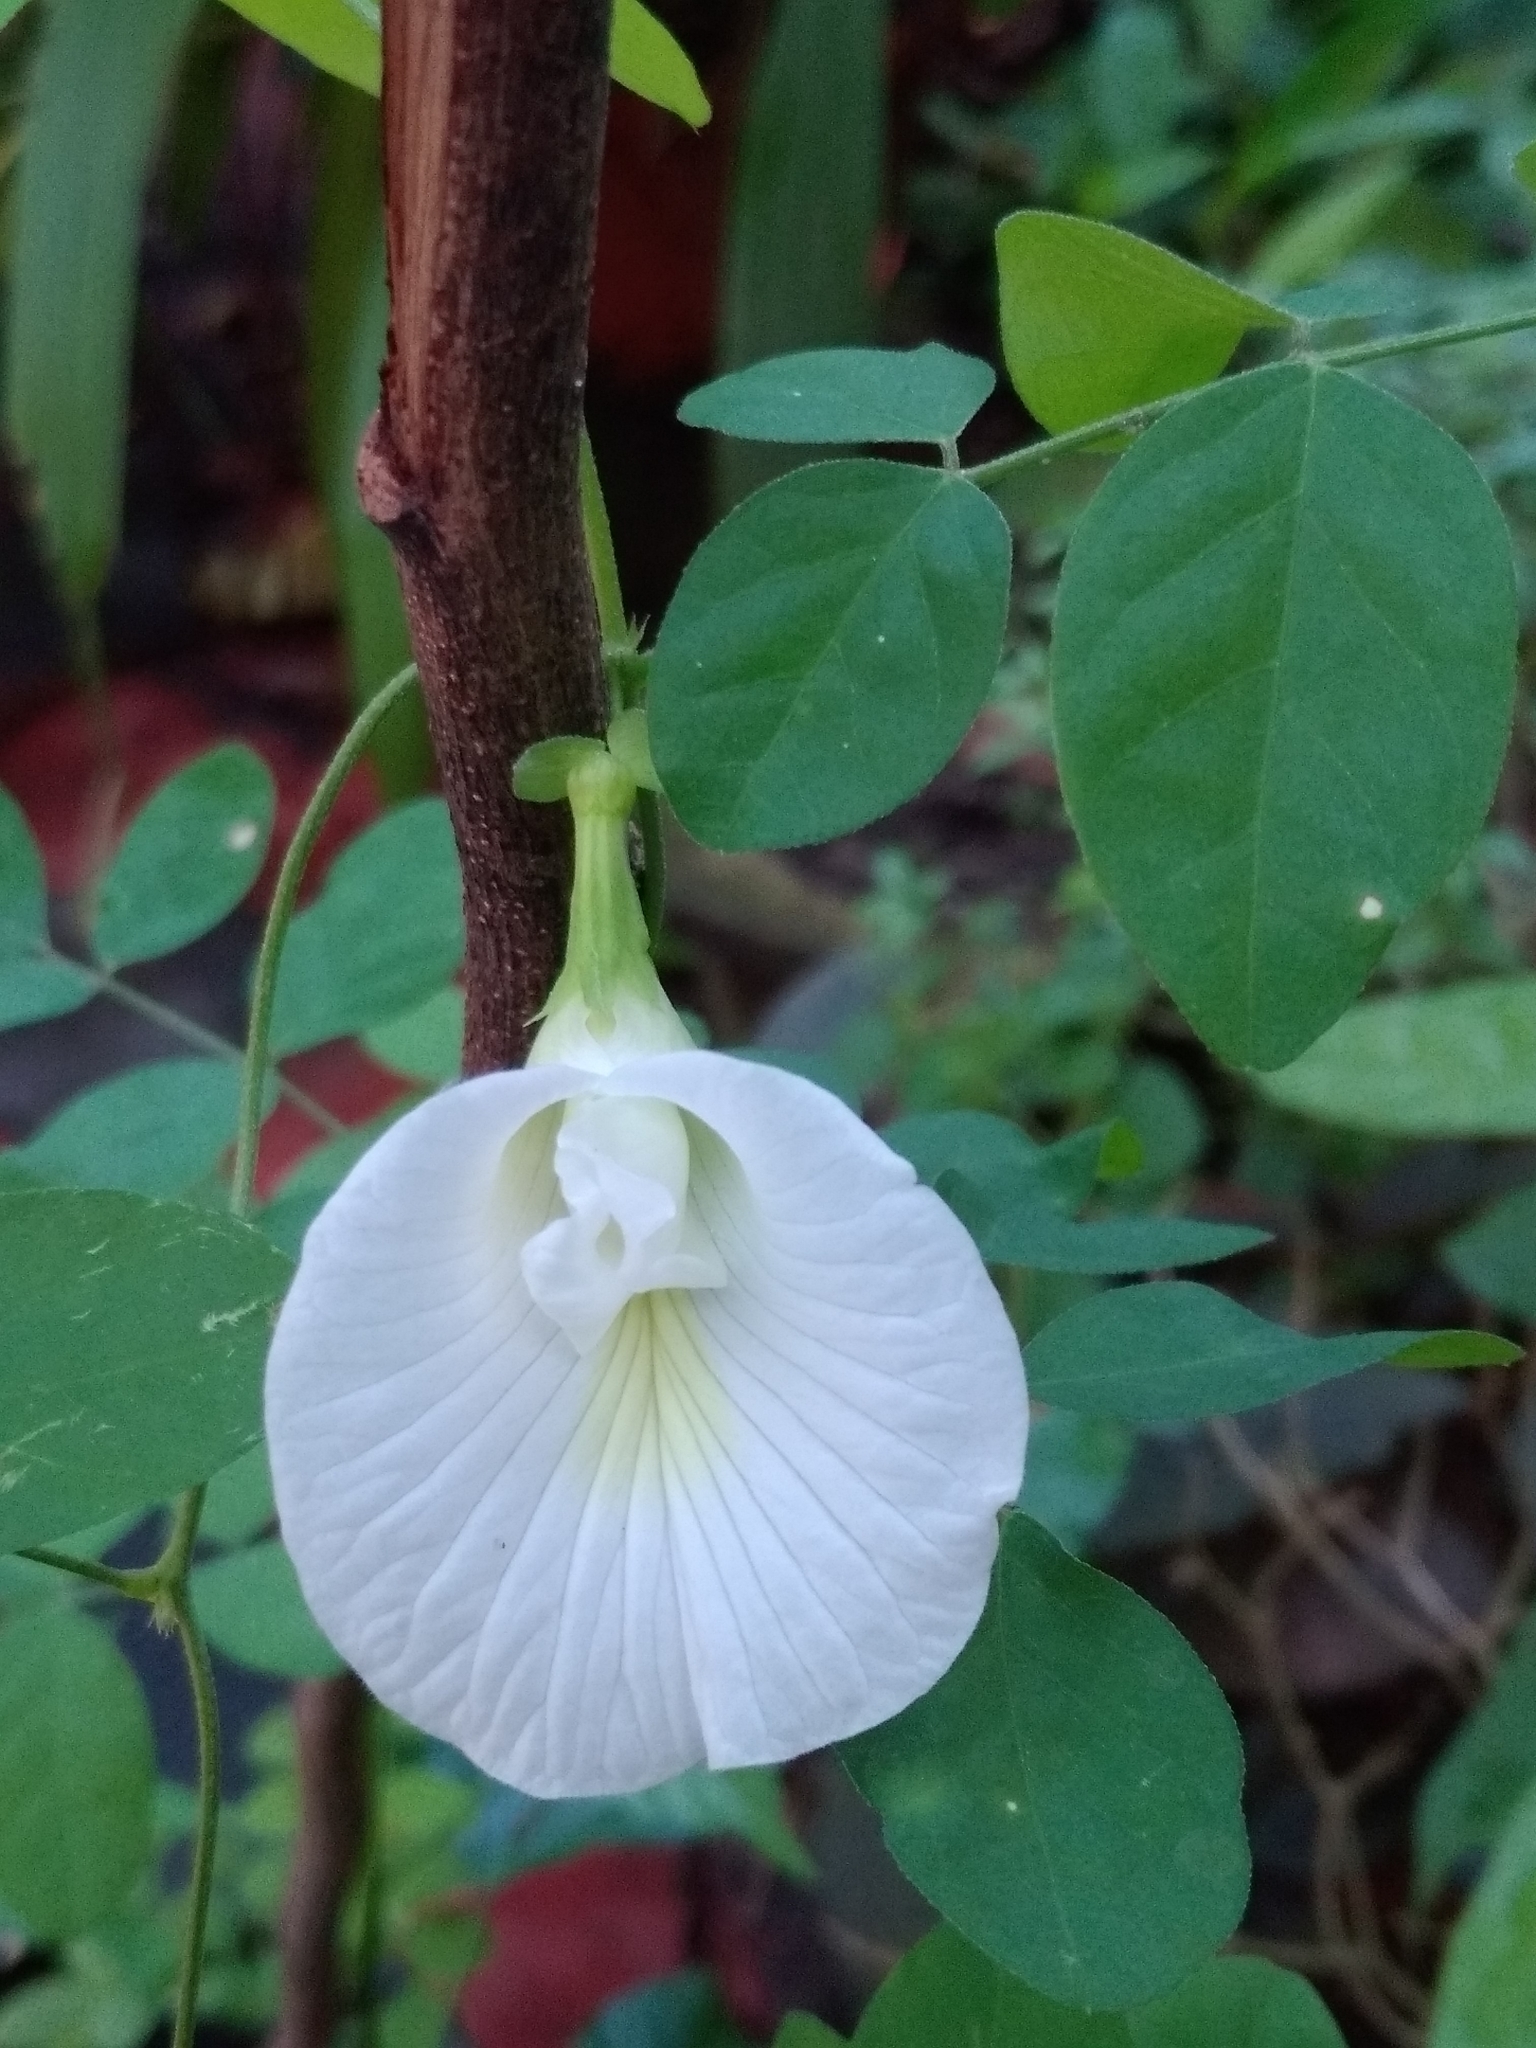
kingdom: Plantae
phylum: Tracheophyta
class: Magnoliopsida
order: Fabales
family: Fabaceae
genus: Clitoria
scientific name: Clitoria ternatea
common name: Asian pigeonwings
